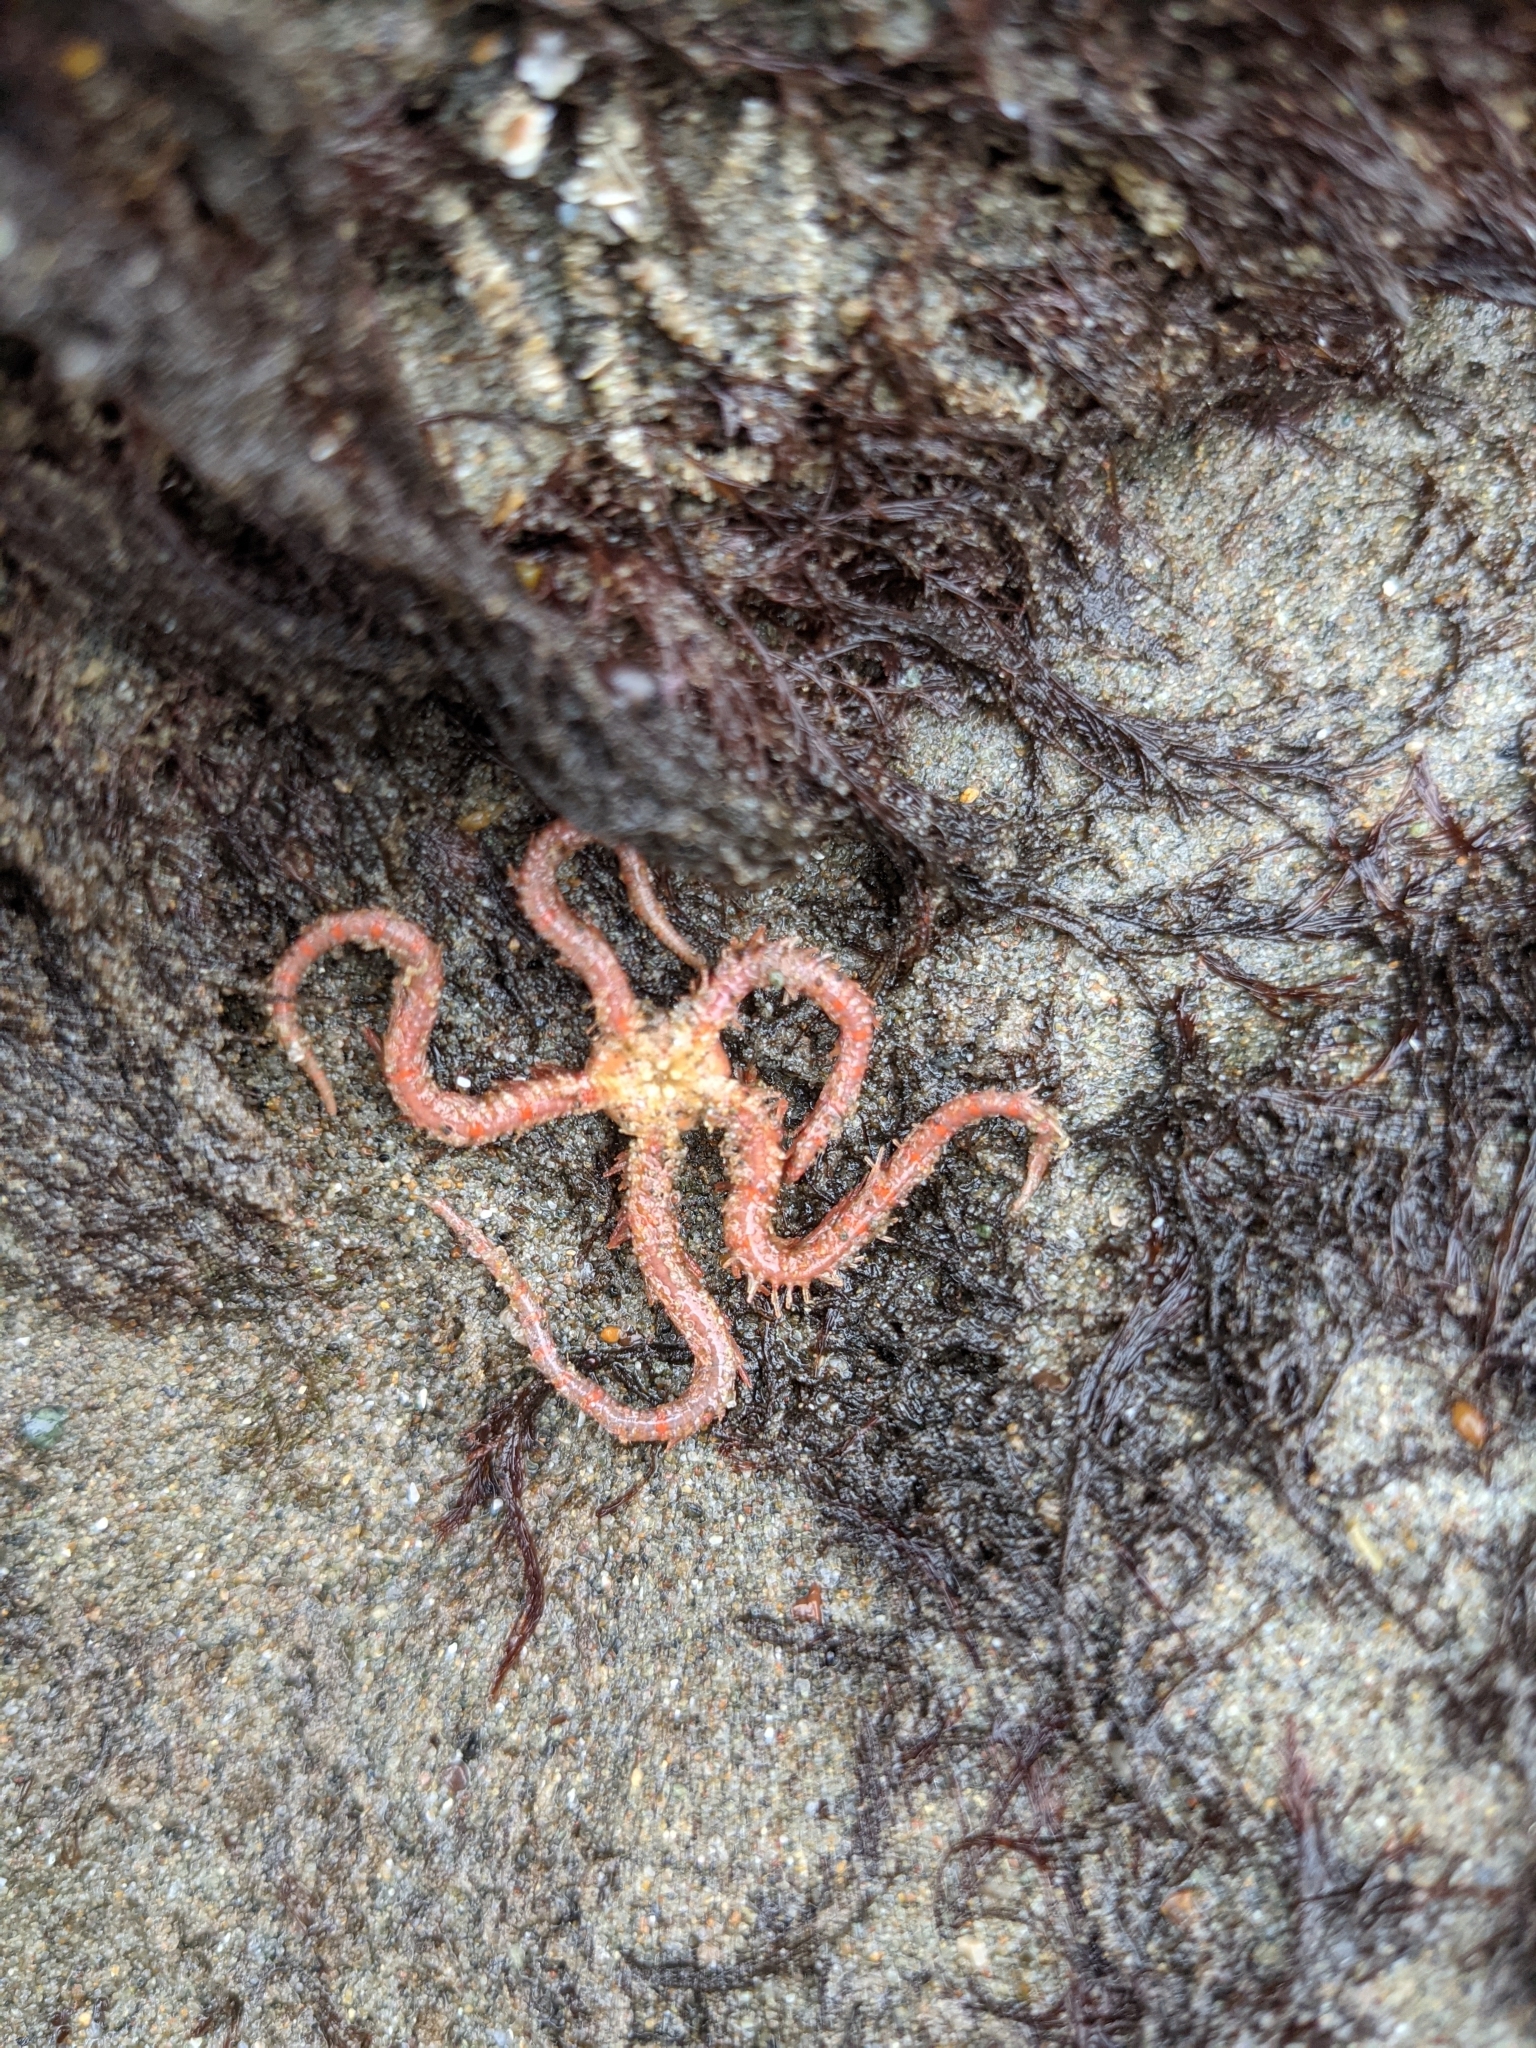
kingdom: Animalia
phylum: Echinodermata
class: Ophiuroidea
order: Amphilepidida
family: Ophiotrichidae
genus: Ophiothrix
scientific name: Ophiothrix spiculata
